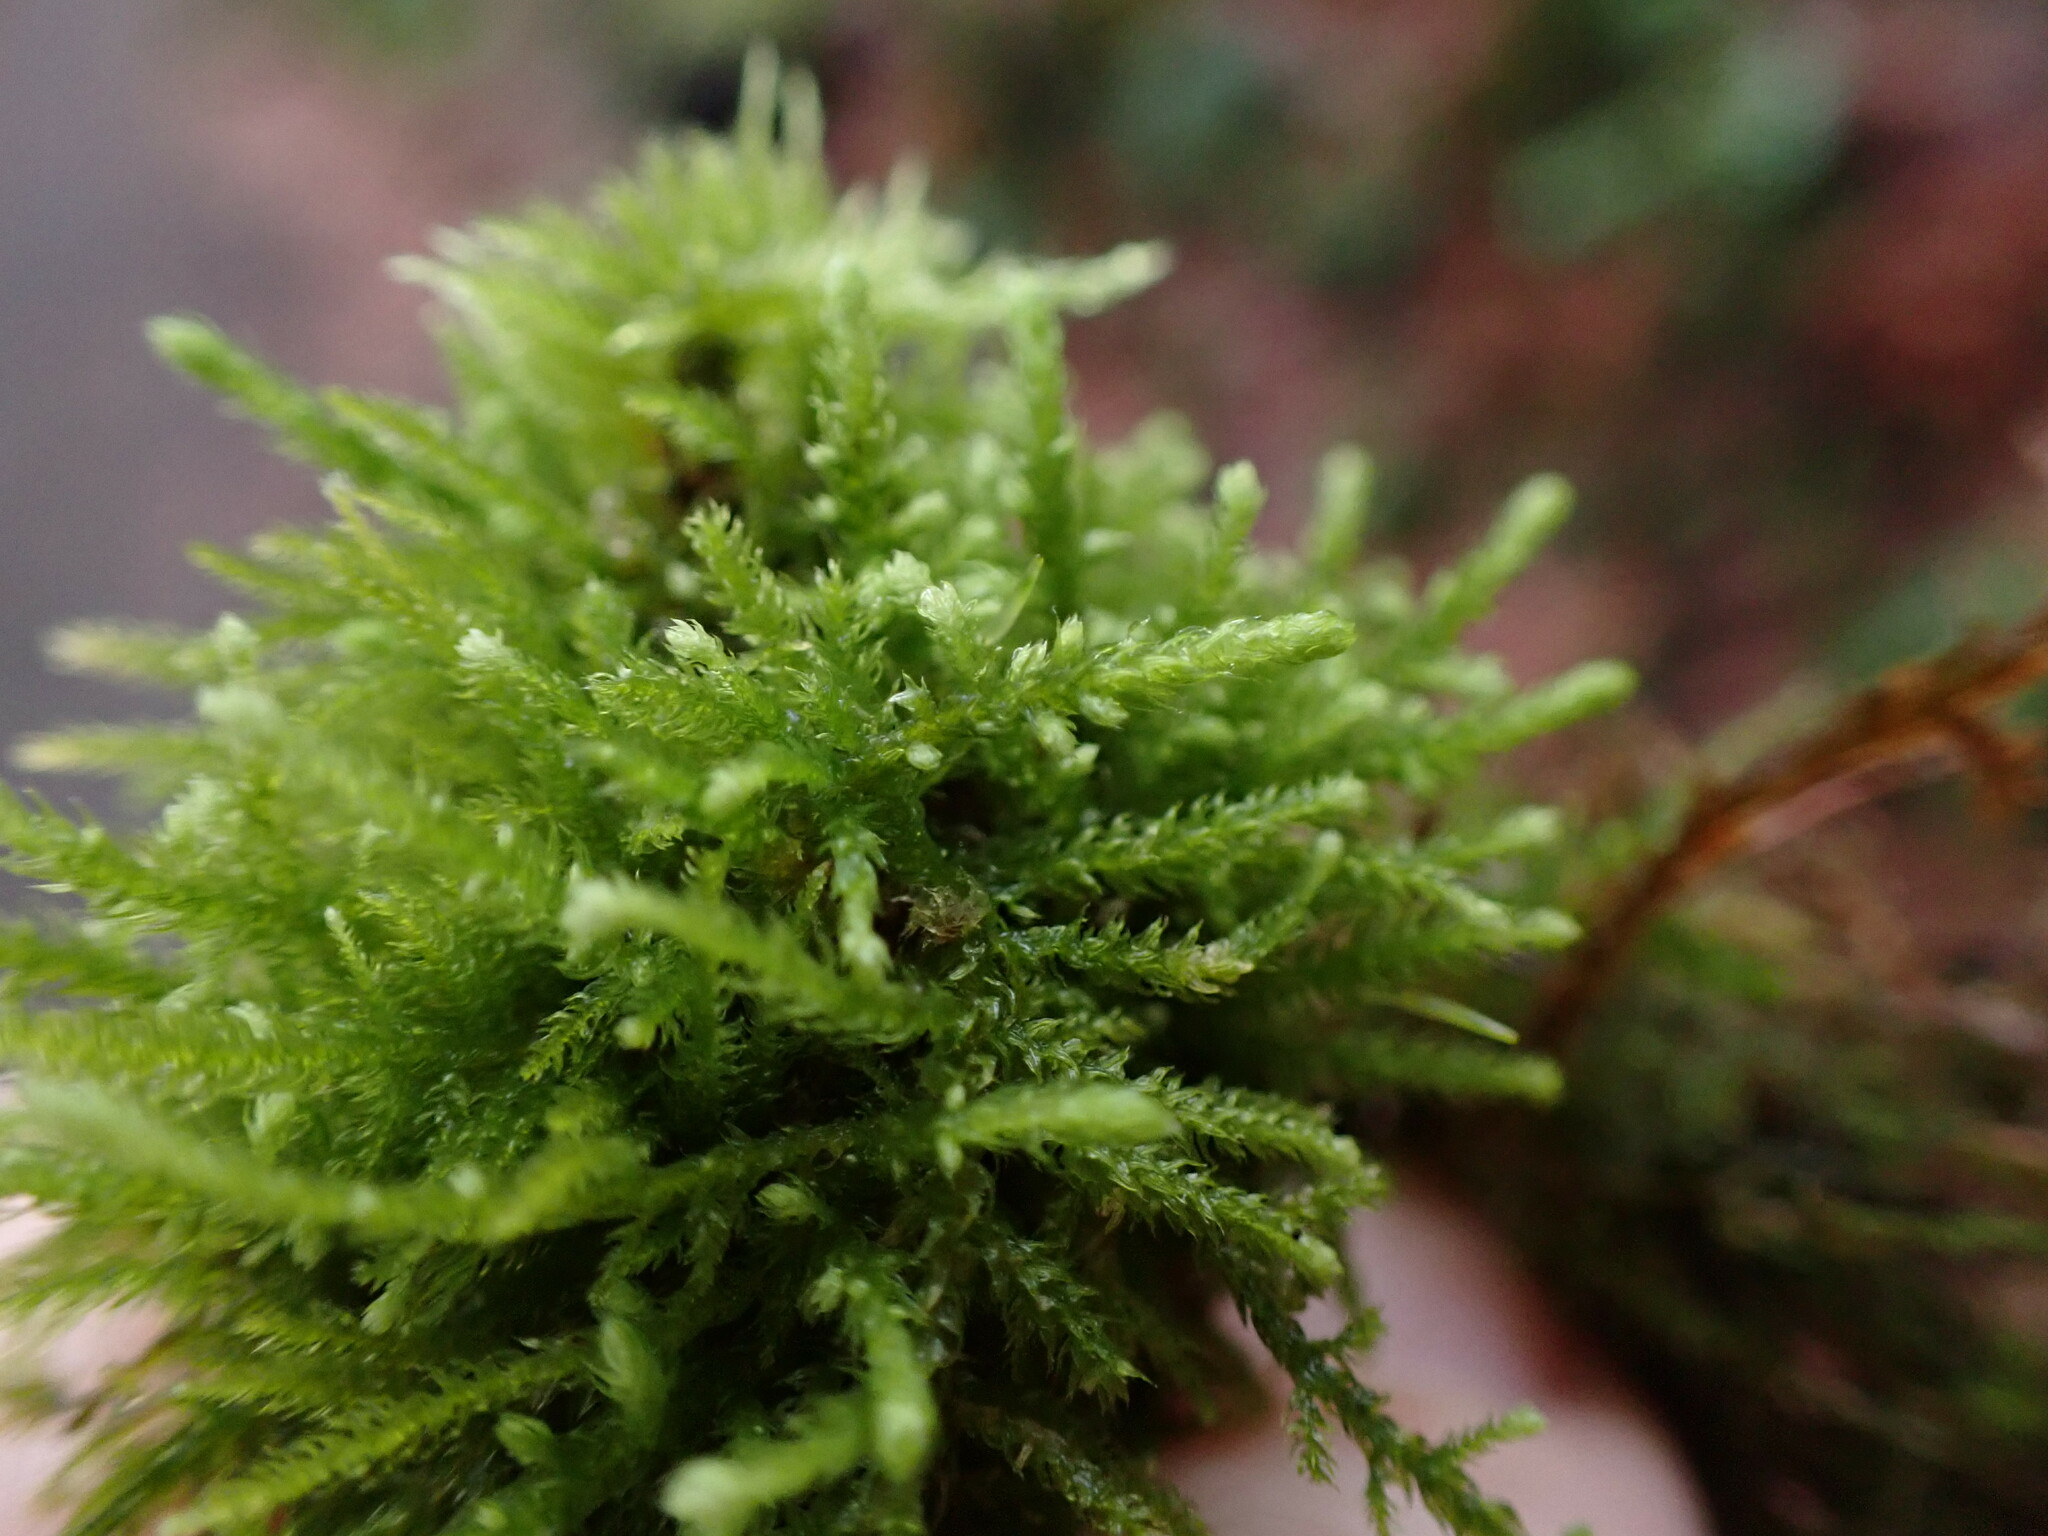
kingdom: Plantae
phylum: Bryophyta
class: Bryopsida
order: Hypnales
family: Brachytheciaceae
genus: Claopodium
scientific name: Claopodium crispifolium
